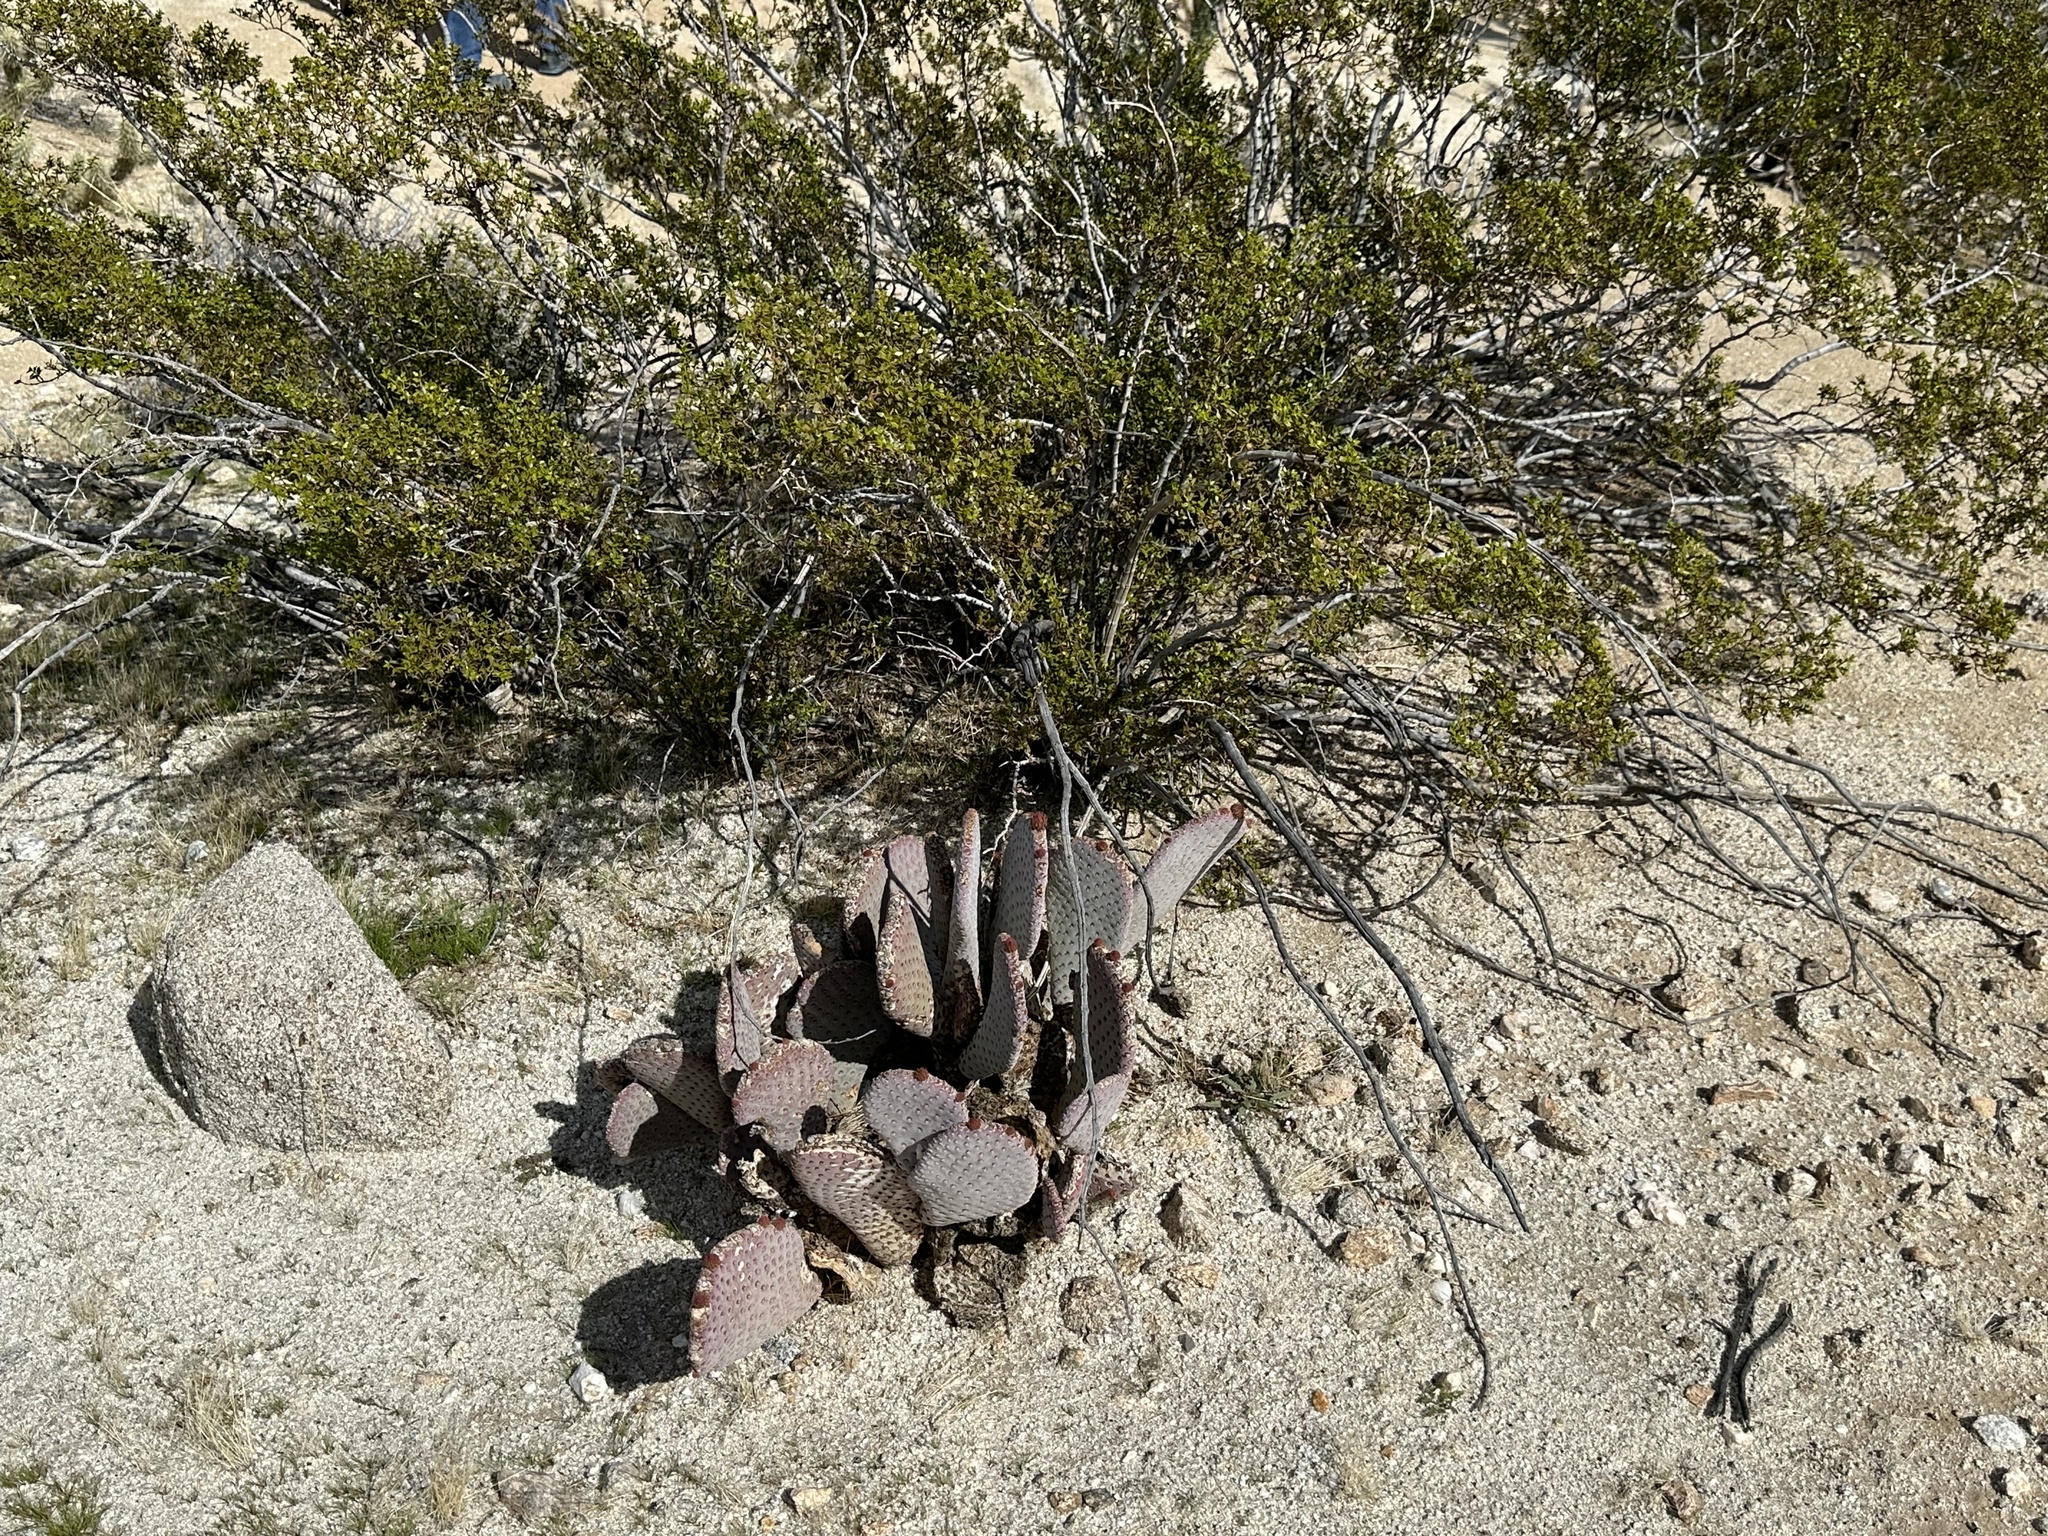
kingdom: Plantae
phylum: Tracheophyta
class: Magnoliopsida
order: Caryophyllales
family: Cactaceae
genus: Opuntia
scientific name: Opuntia basilaris
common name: Beavertail prickly-pear
